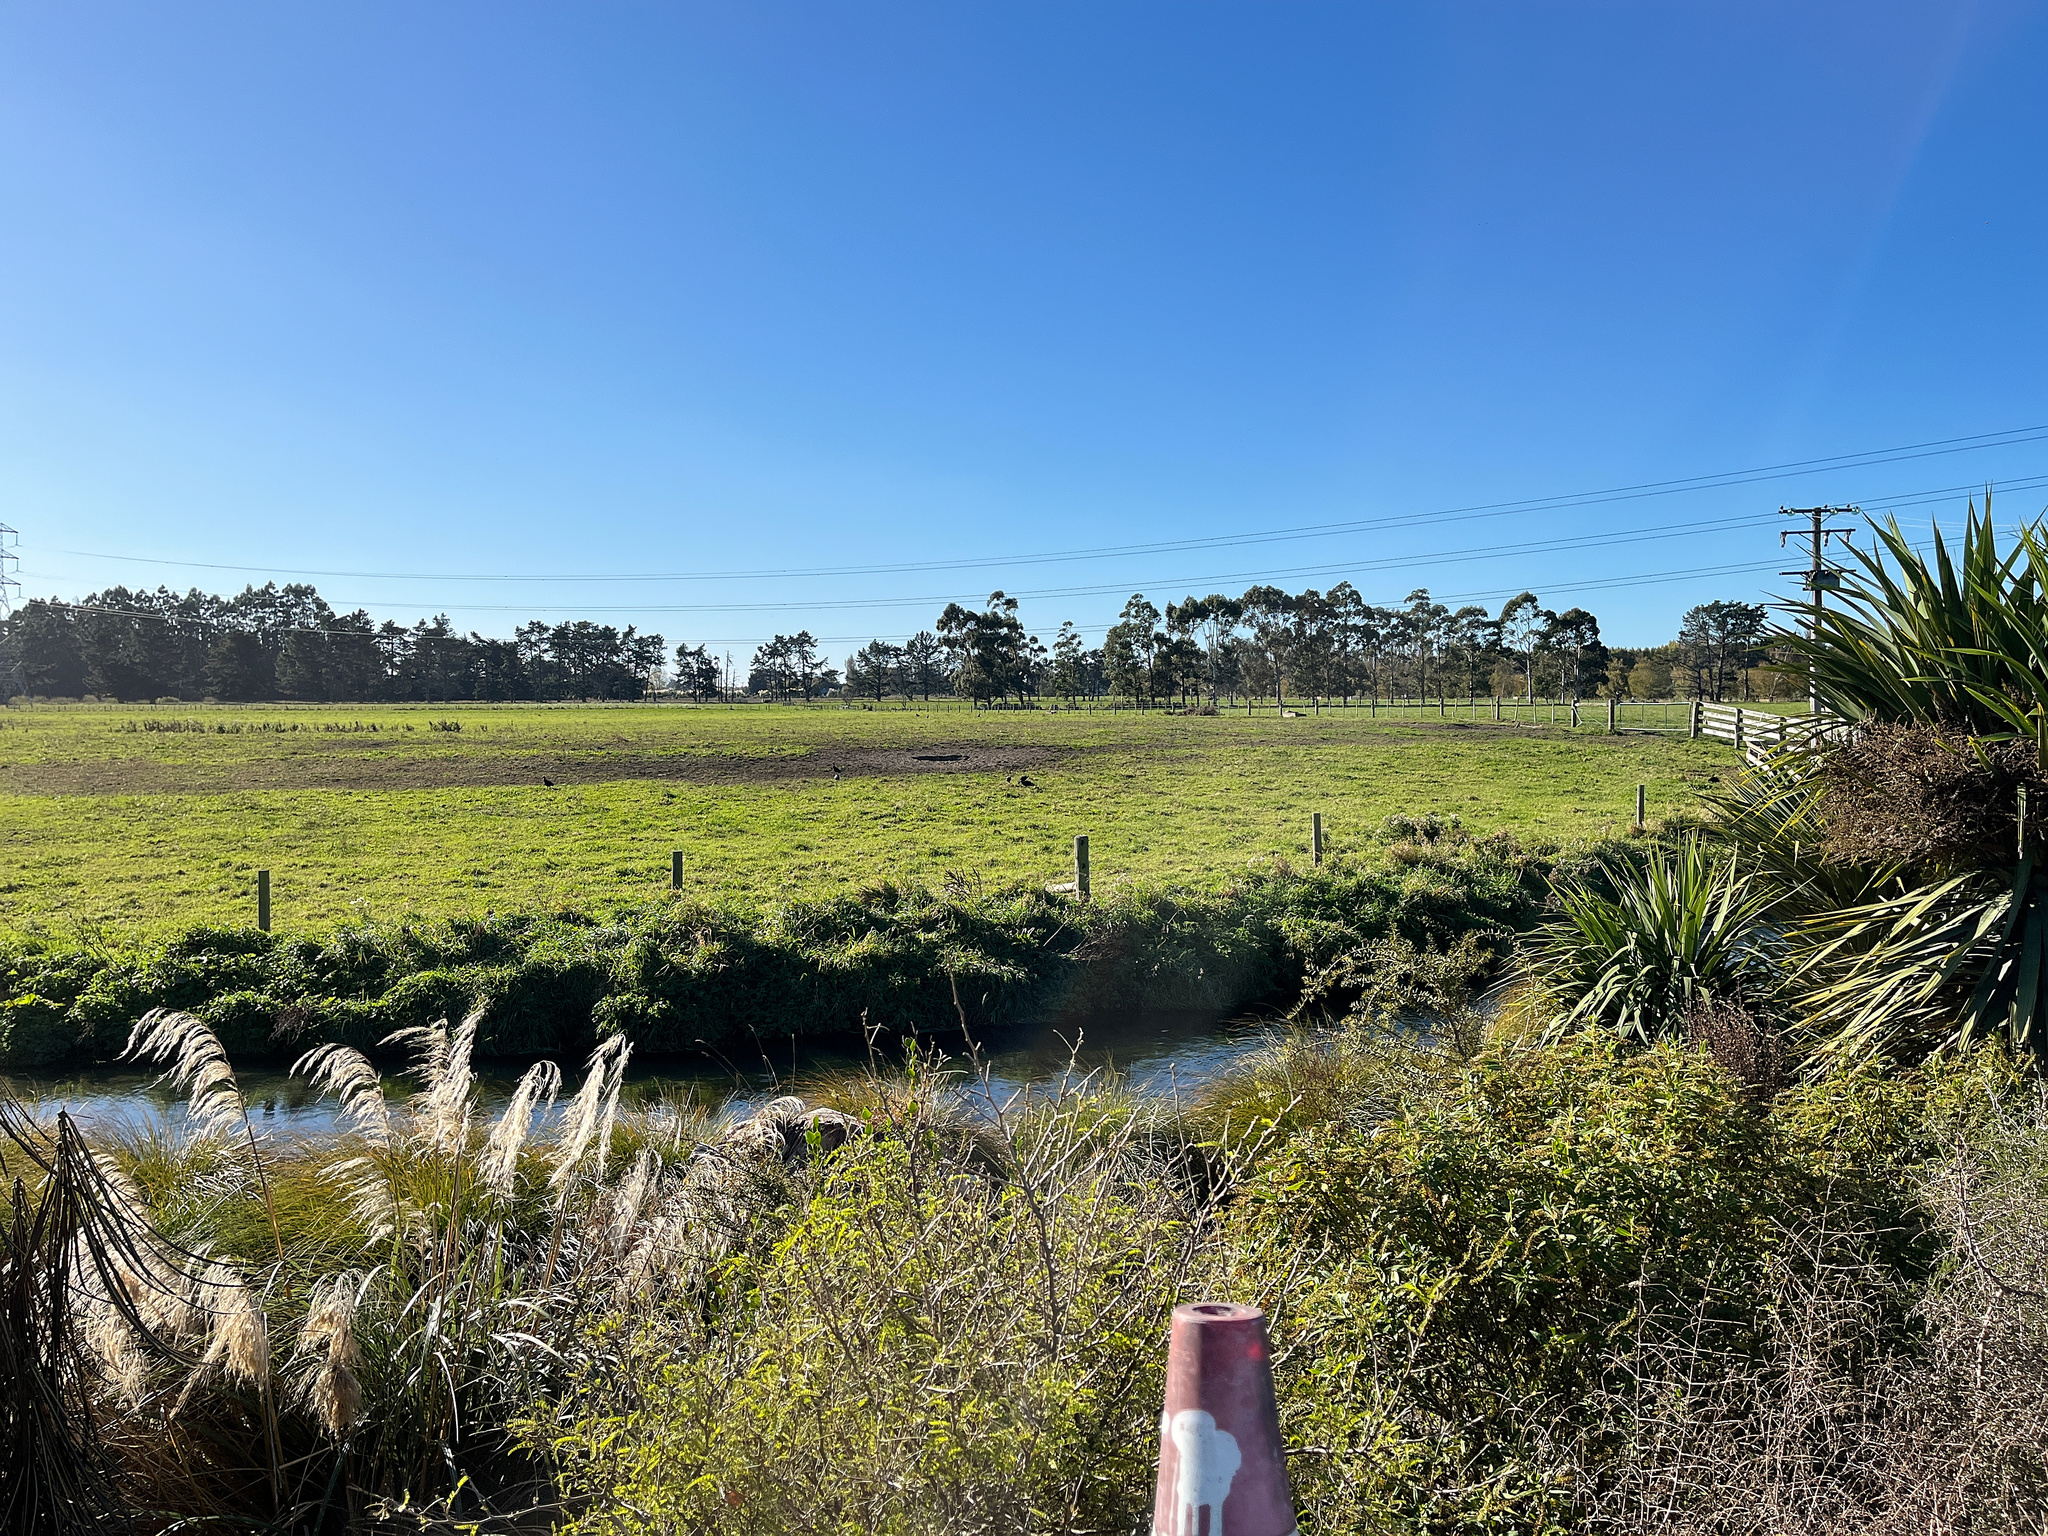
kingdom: Animalia
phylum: Chordata
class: Aves
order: Gruiformes
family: Rallidae
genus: Porphyrio
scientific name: Porphyrio melanotus
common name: Australasian swamphen
